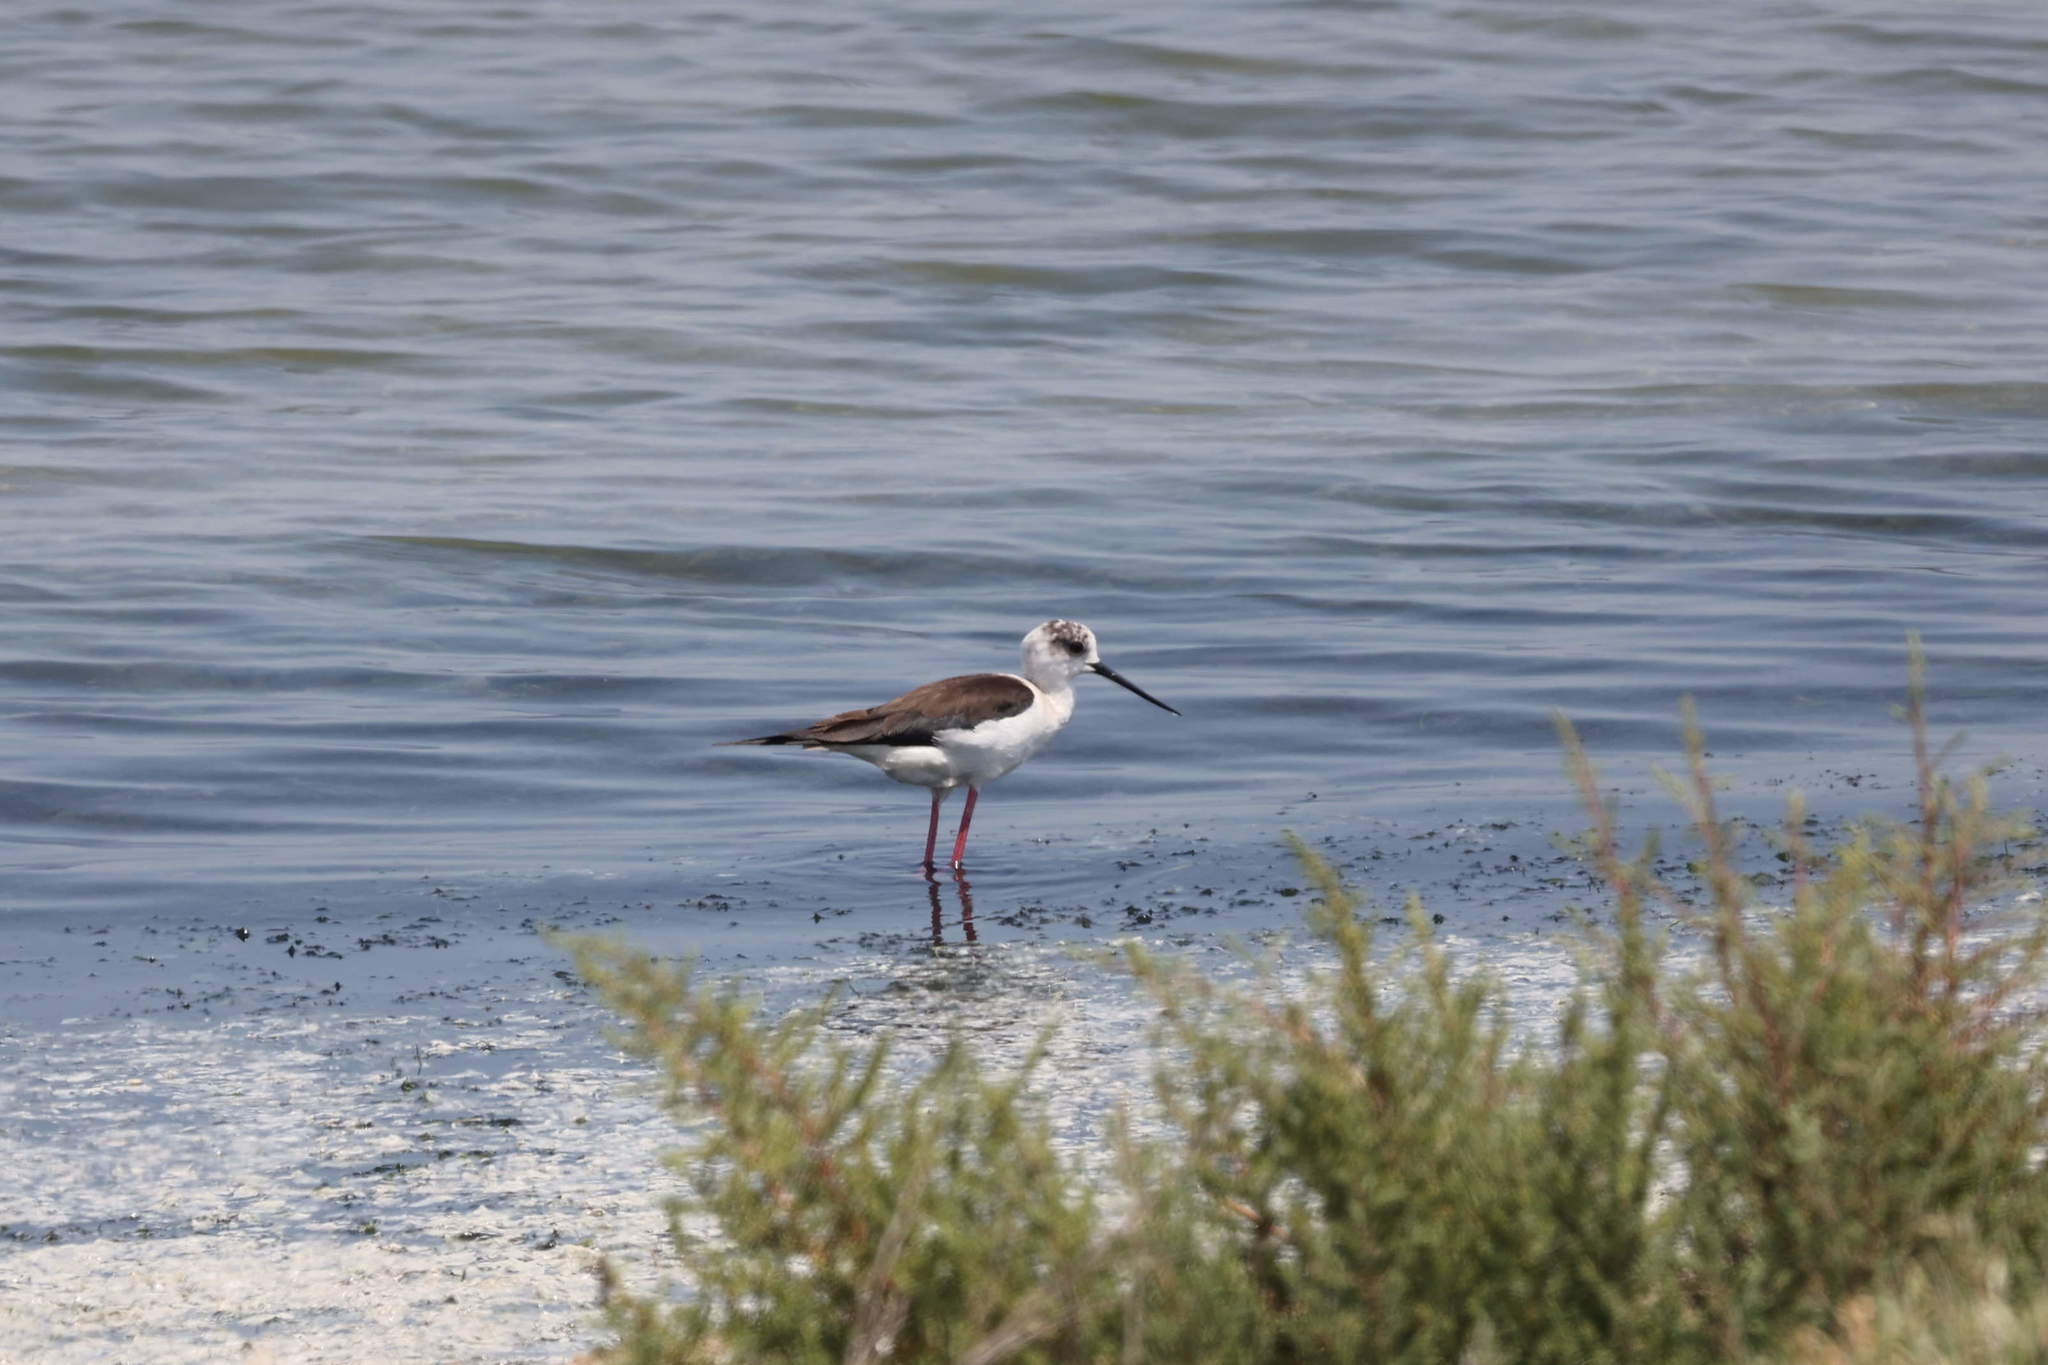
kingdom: Animalia
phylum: Chordata
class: Aves
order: Charadriiformes
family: Recurvirostridae
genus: Himantopus
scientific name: Himantopus himantopus
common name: Black-winged stilt
